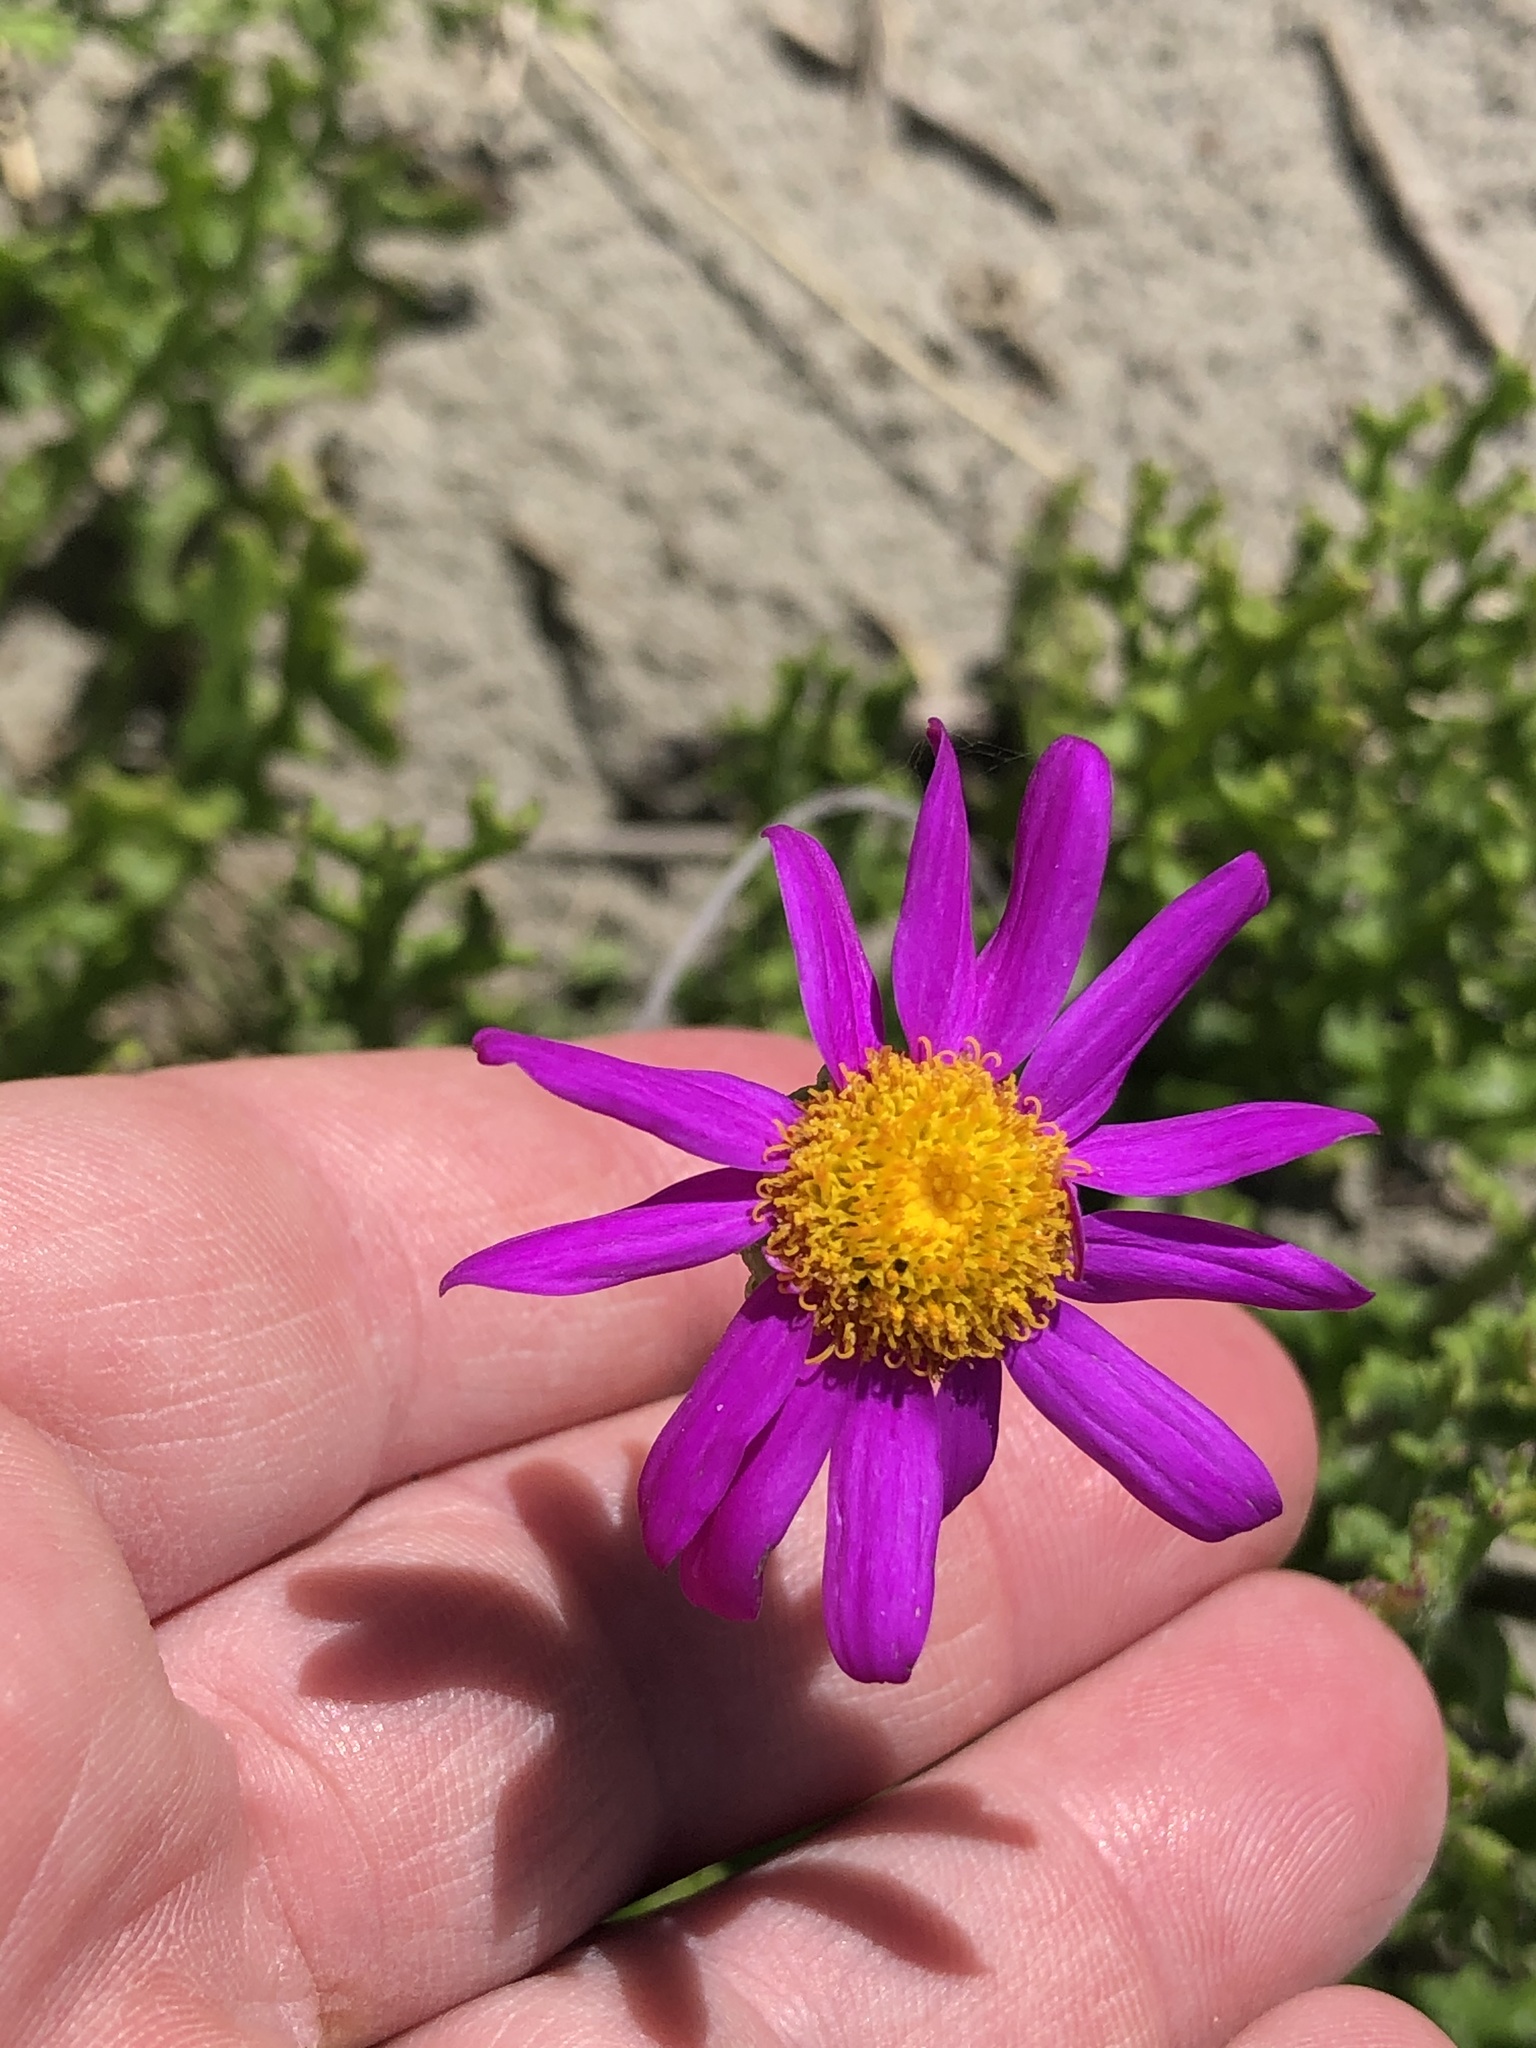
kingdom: Plantae
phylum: Tracheophyta
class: Magnoliopsida
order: Asterales
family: Asteraceae
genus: Senecio
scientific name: Senecio elegans
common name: Purple groundsel
